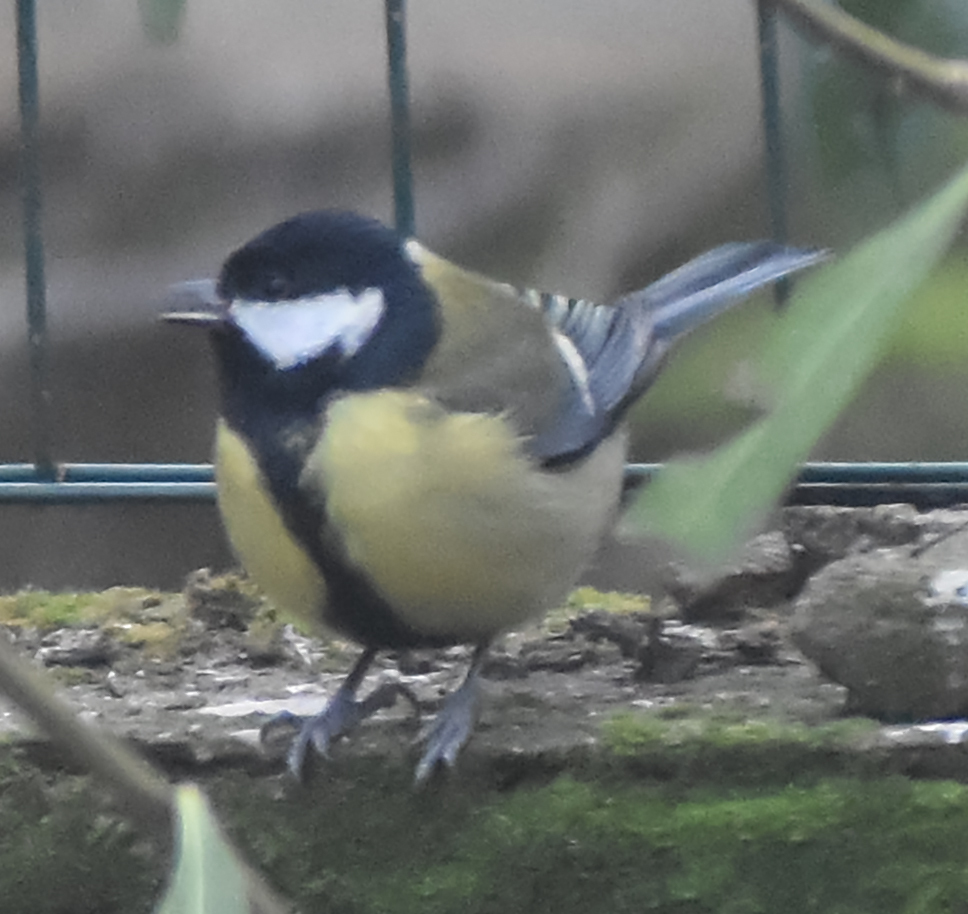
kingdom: Animalia
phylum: Chordata
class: Aves
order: Passeriformes
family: Paridae
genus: Parus
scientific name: Parus major
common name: Great tit
